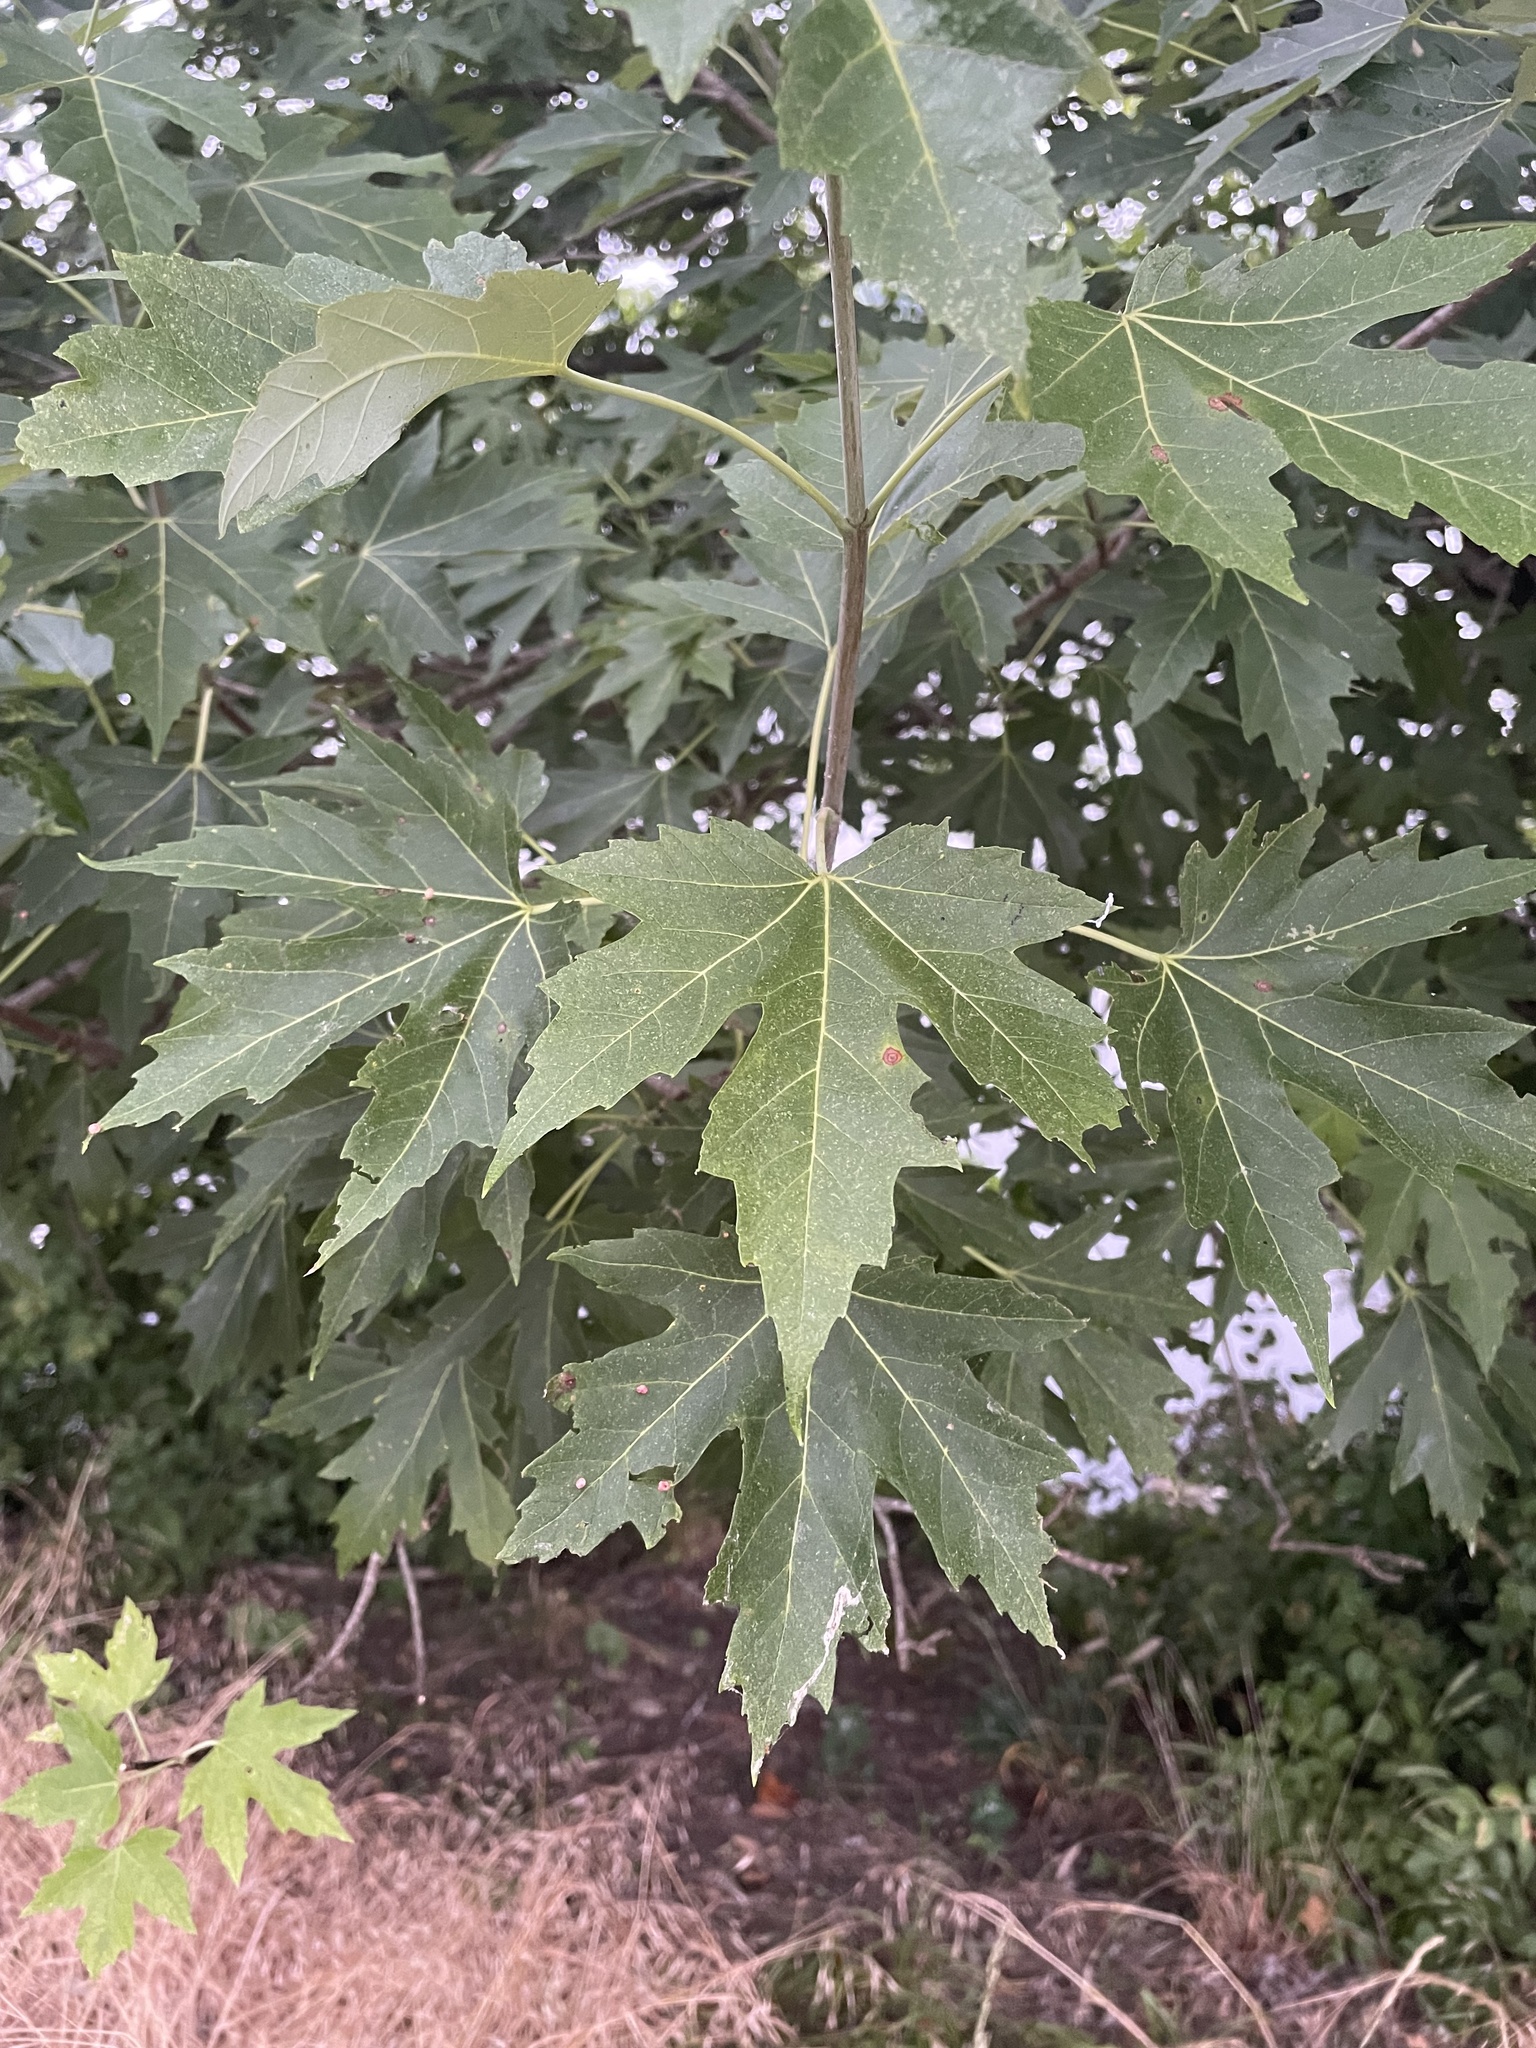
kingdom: Plantae
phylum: Tracheophyta
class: Magnoliopsida
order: Sapindales
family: Sapindaceae
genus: Acer
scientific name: Acer saccharinum
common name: Silver maple
